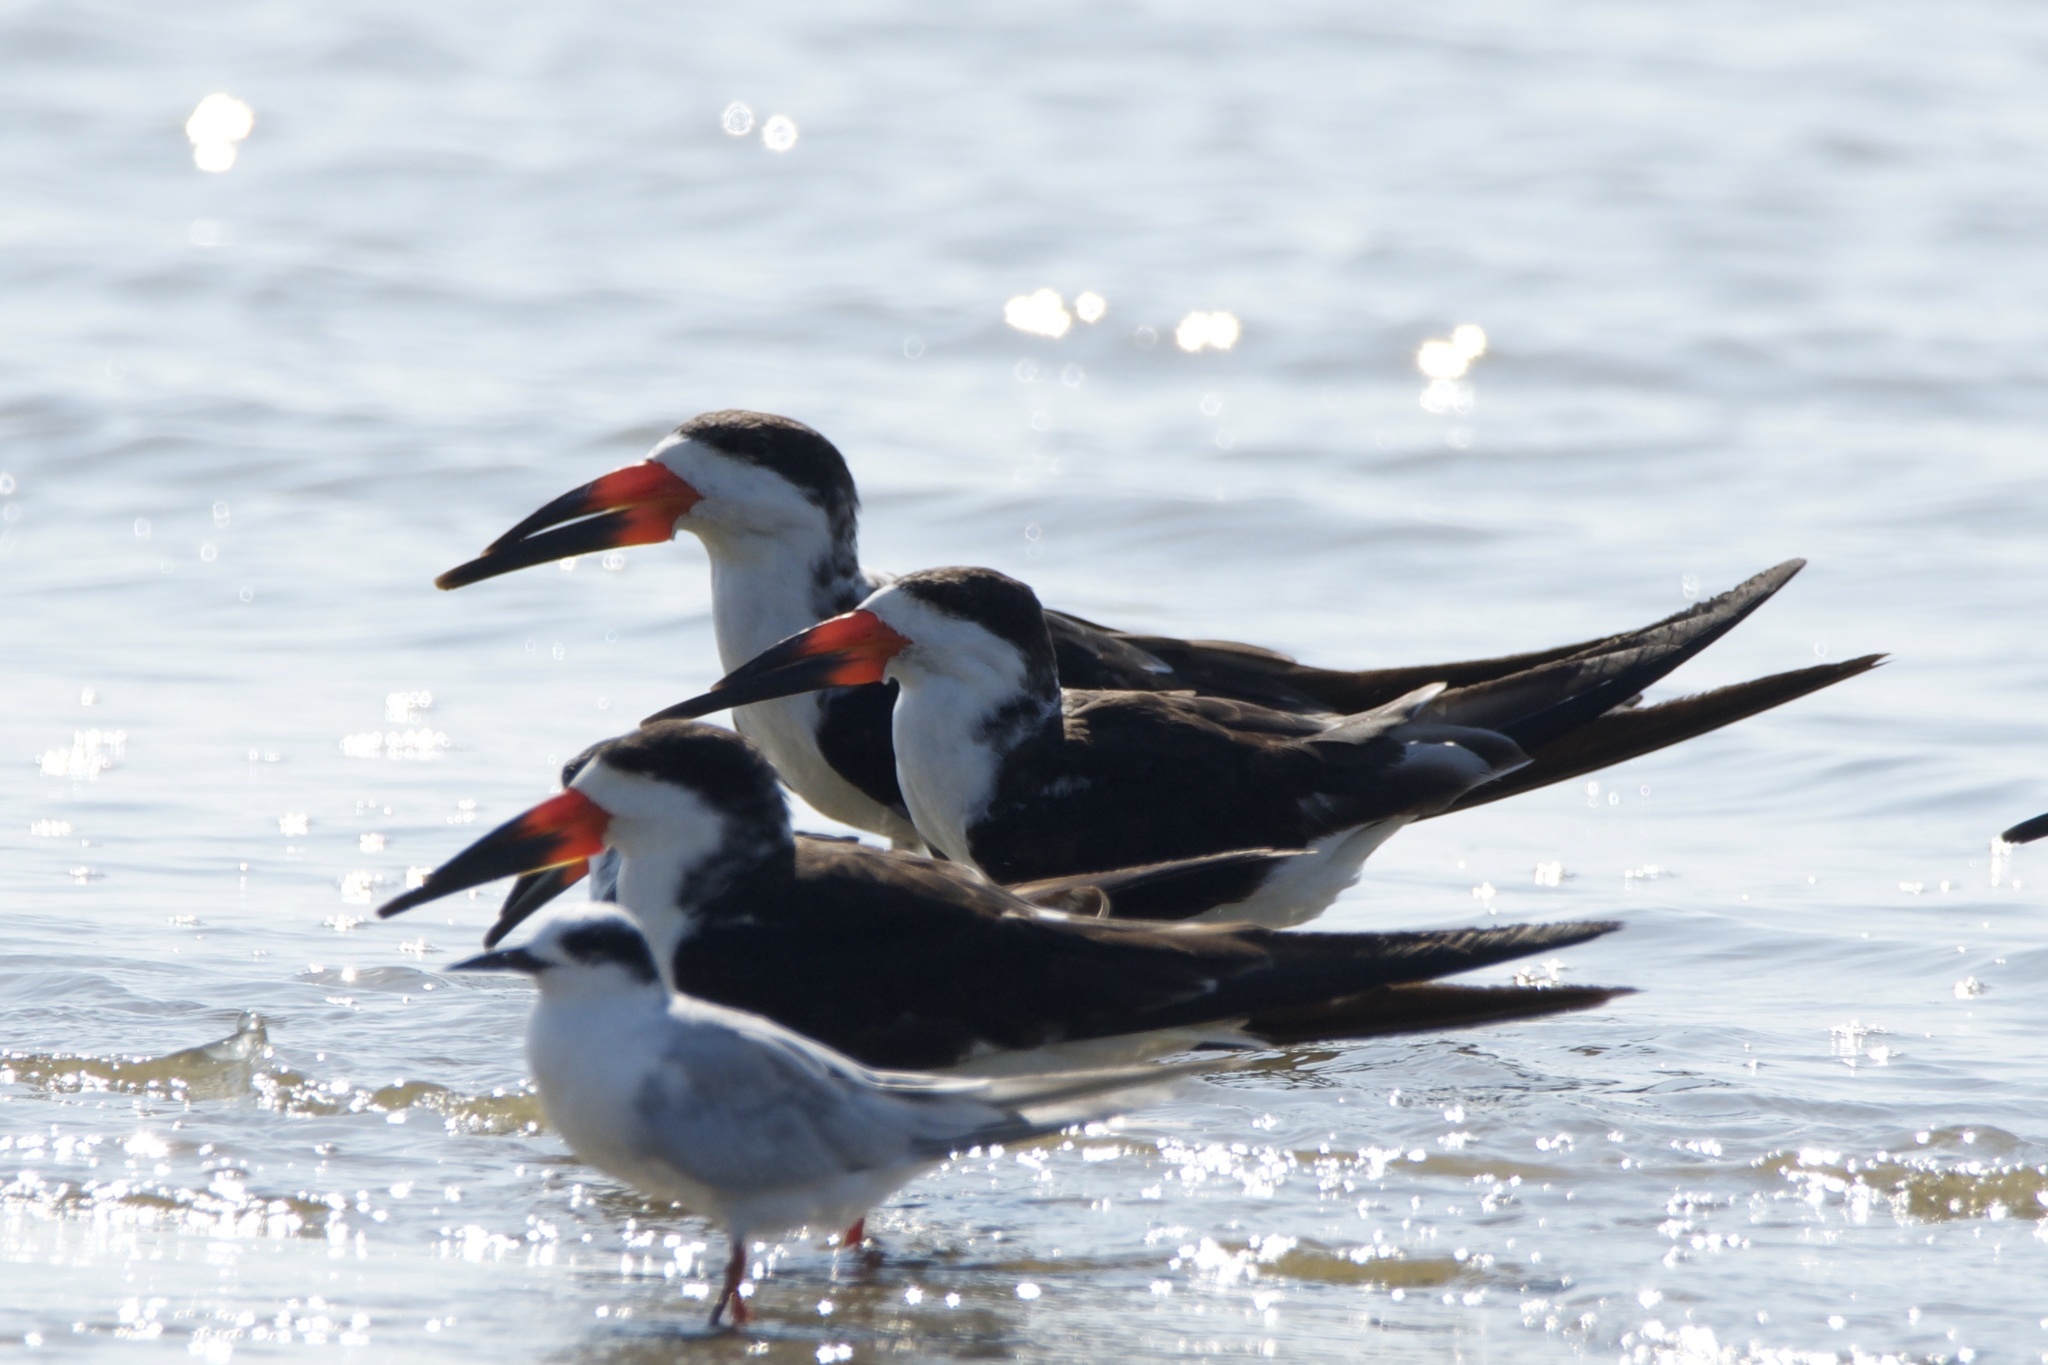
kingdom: Animalia
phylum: Chordata
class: Aves
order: Charadriiformes
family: Laridae
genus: Rynchops
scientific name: Rynchops niger
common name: Black skimmer
